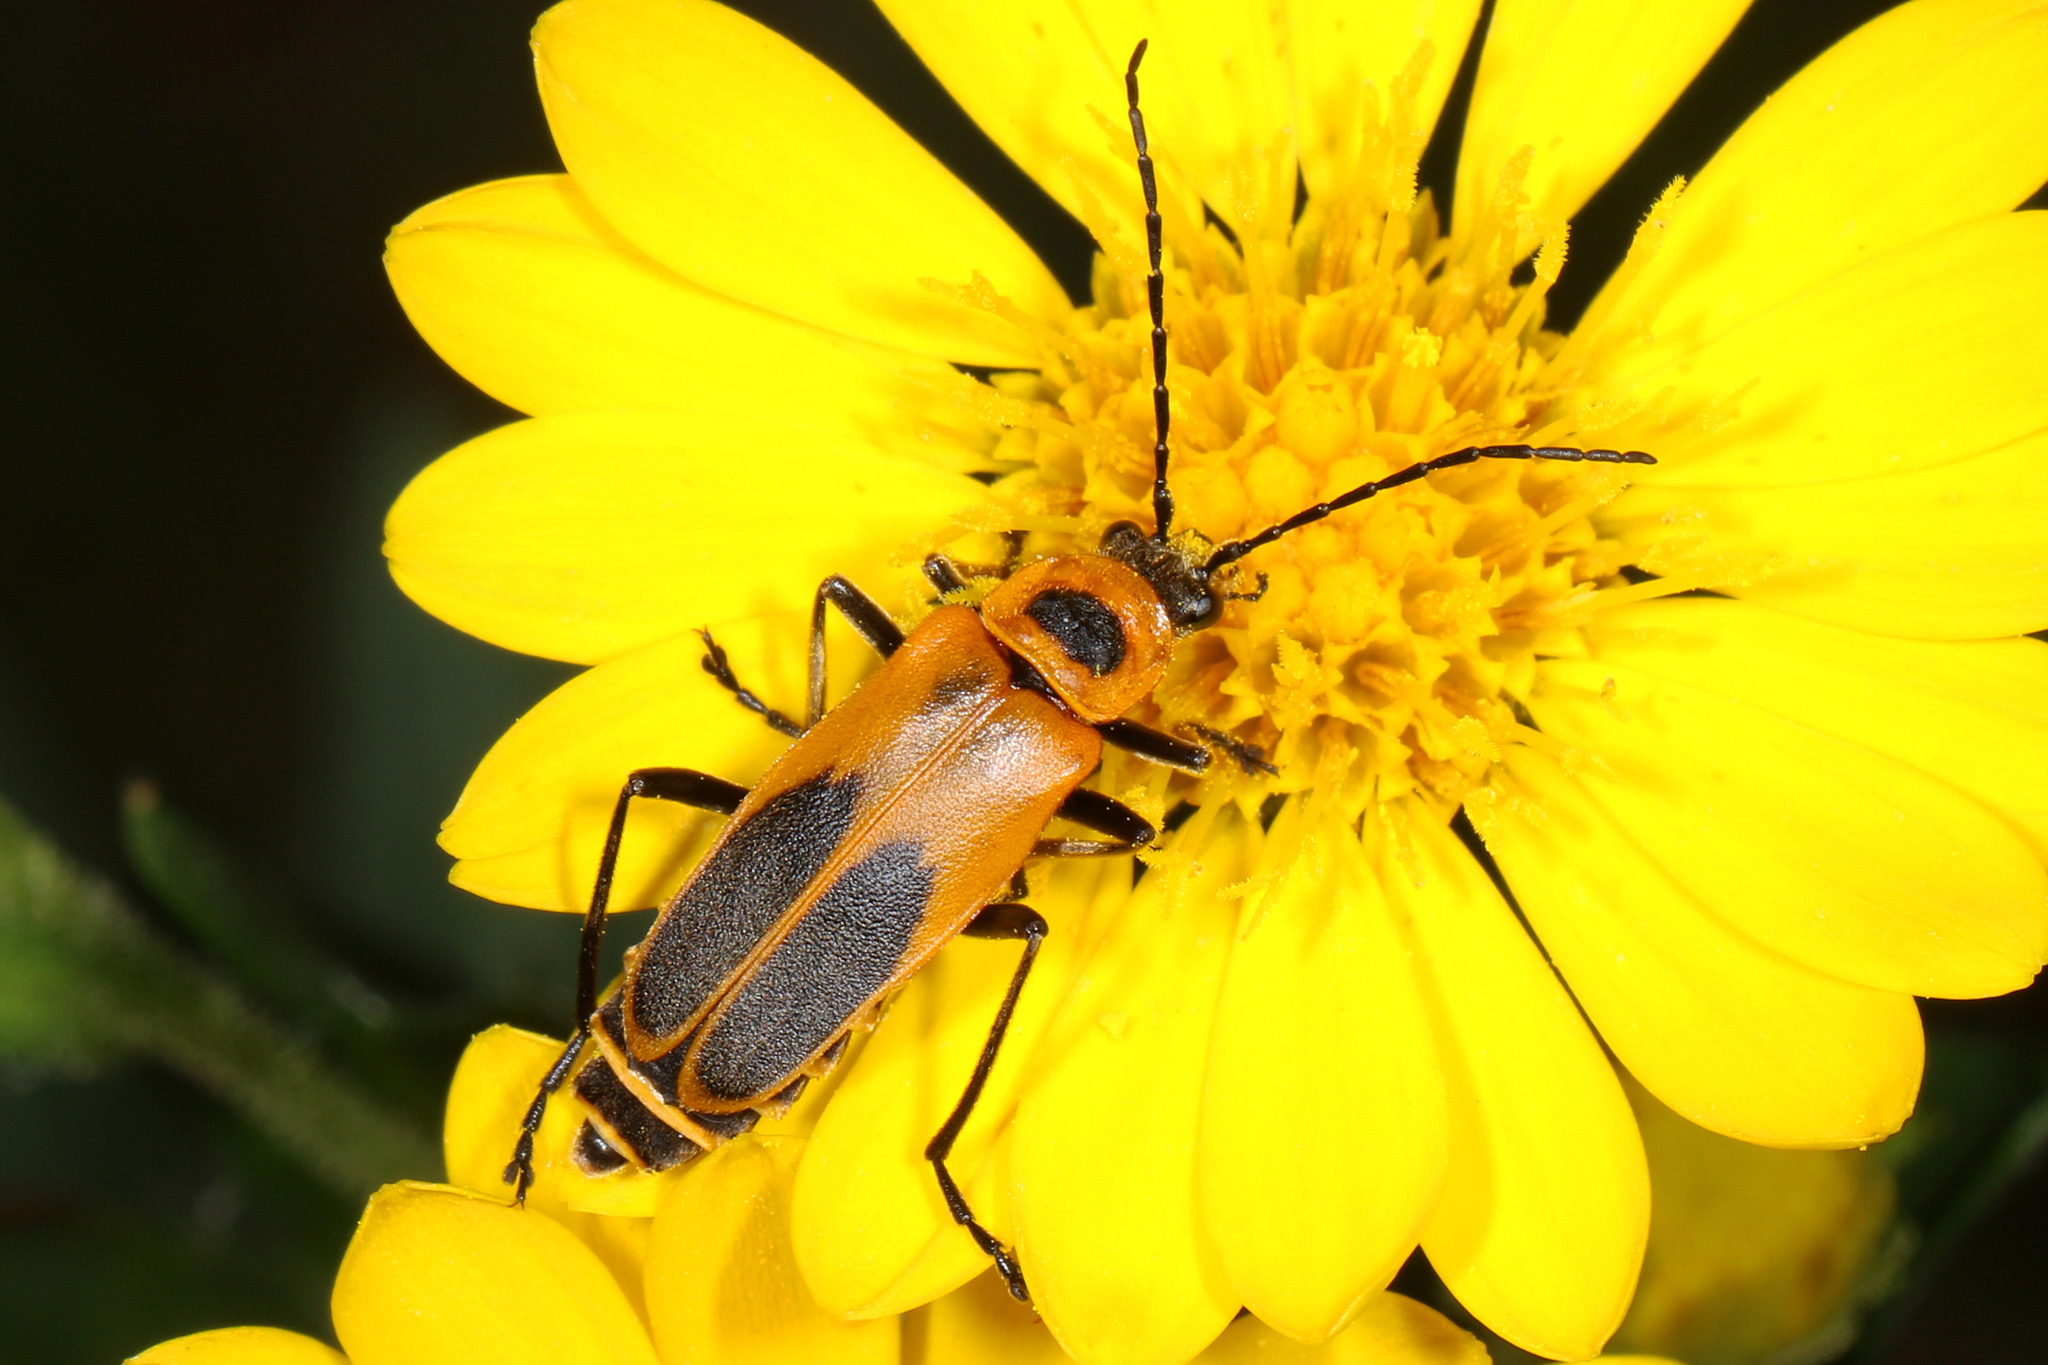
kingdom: Animalia
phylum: Arthropoda
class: Insecta
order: Coleoptera
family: Cantharidae
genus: Chauliognathus
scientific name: Chauliognathus pensylvanicus
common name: Goldenrod soldier beetle
